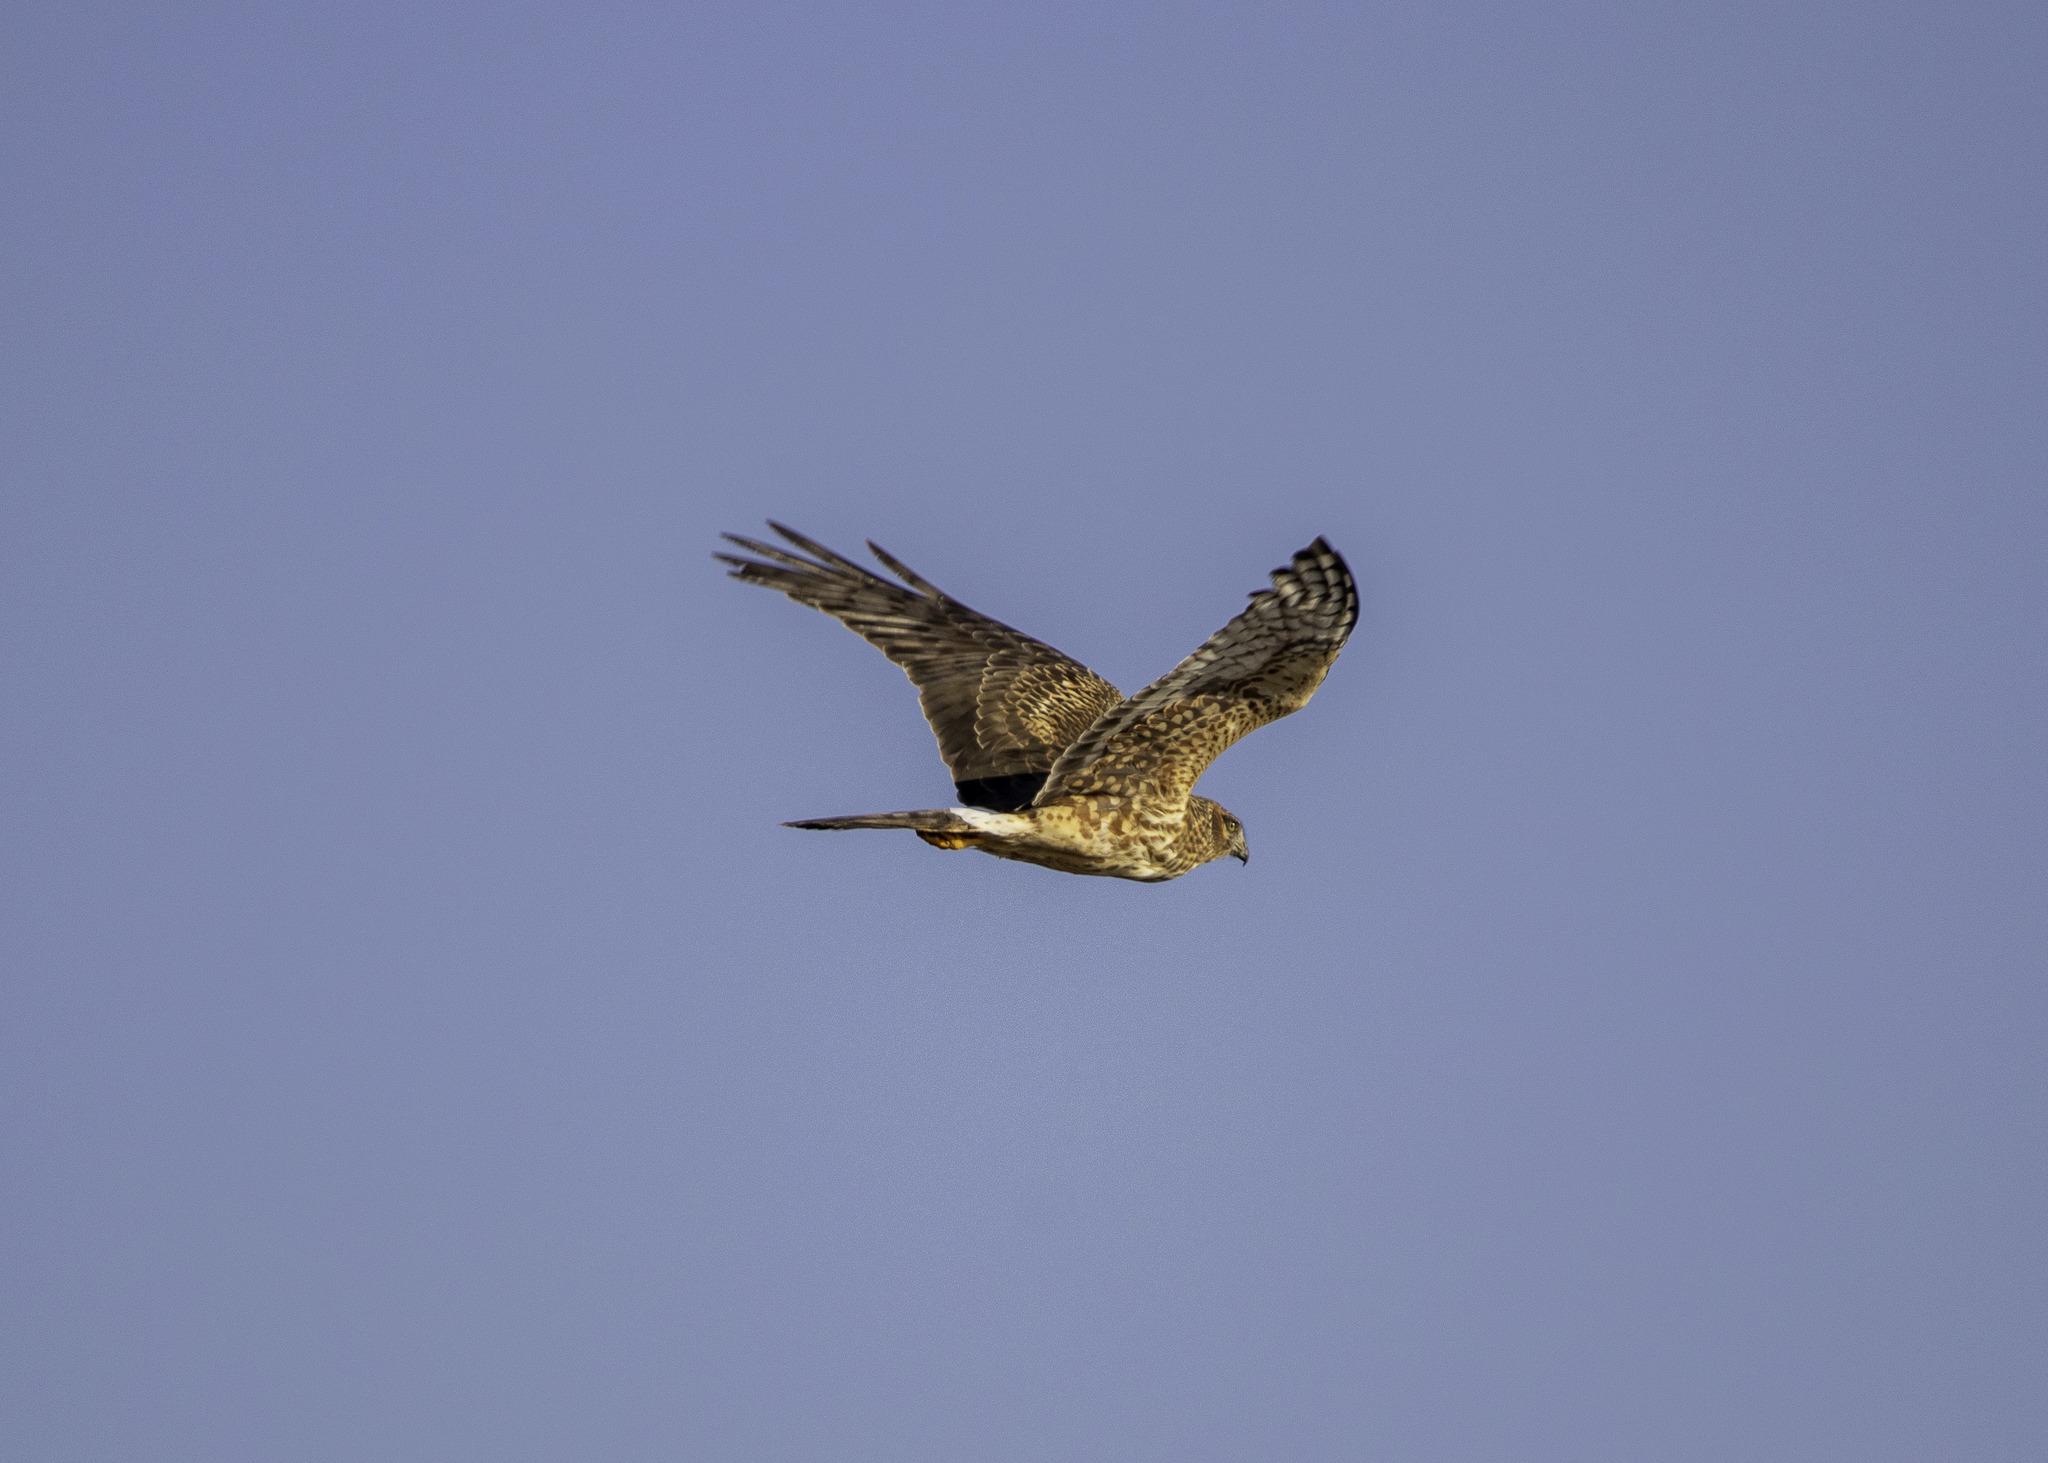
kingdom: Animalia
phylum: Chordata
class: Aves
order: Accipitriformes
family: Accipitridae
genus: Circus
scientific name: Circus cyaneus
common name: Hen harrier
